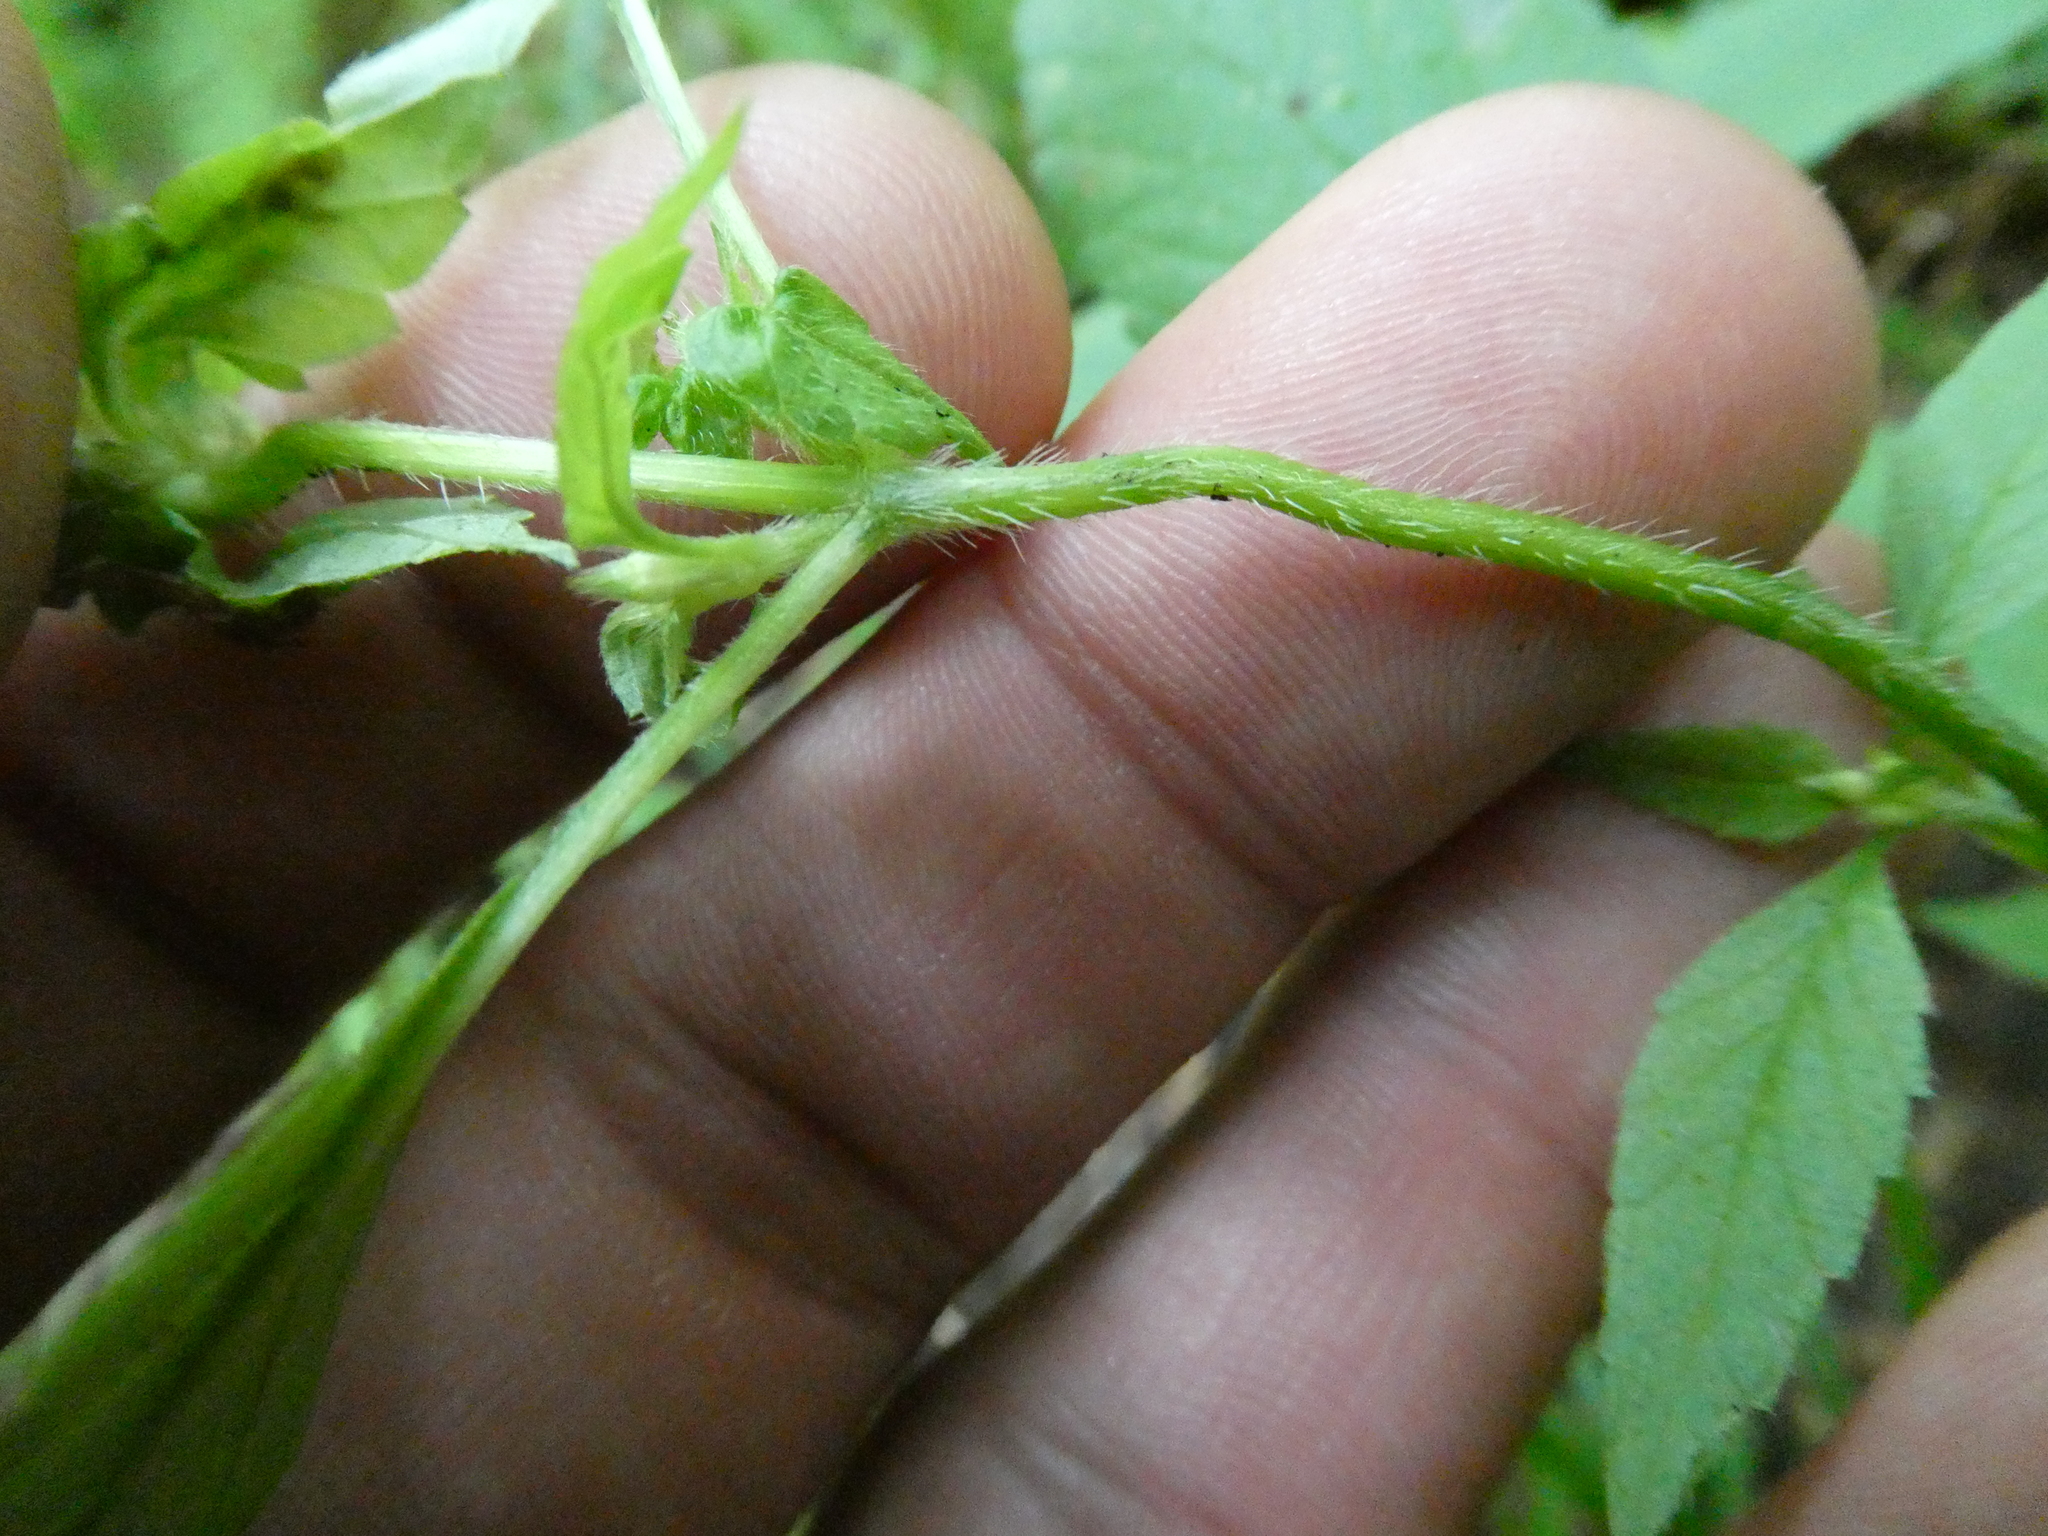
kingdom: Plantae
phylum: Tracheophyta
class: Magnoliopsida
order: Lamiales
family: Lamiaceae
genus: Galeopsis
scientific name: Galeopsis tetrahit
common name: Common hemp-nettle
